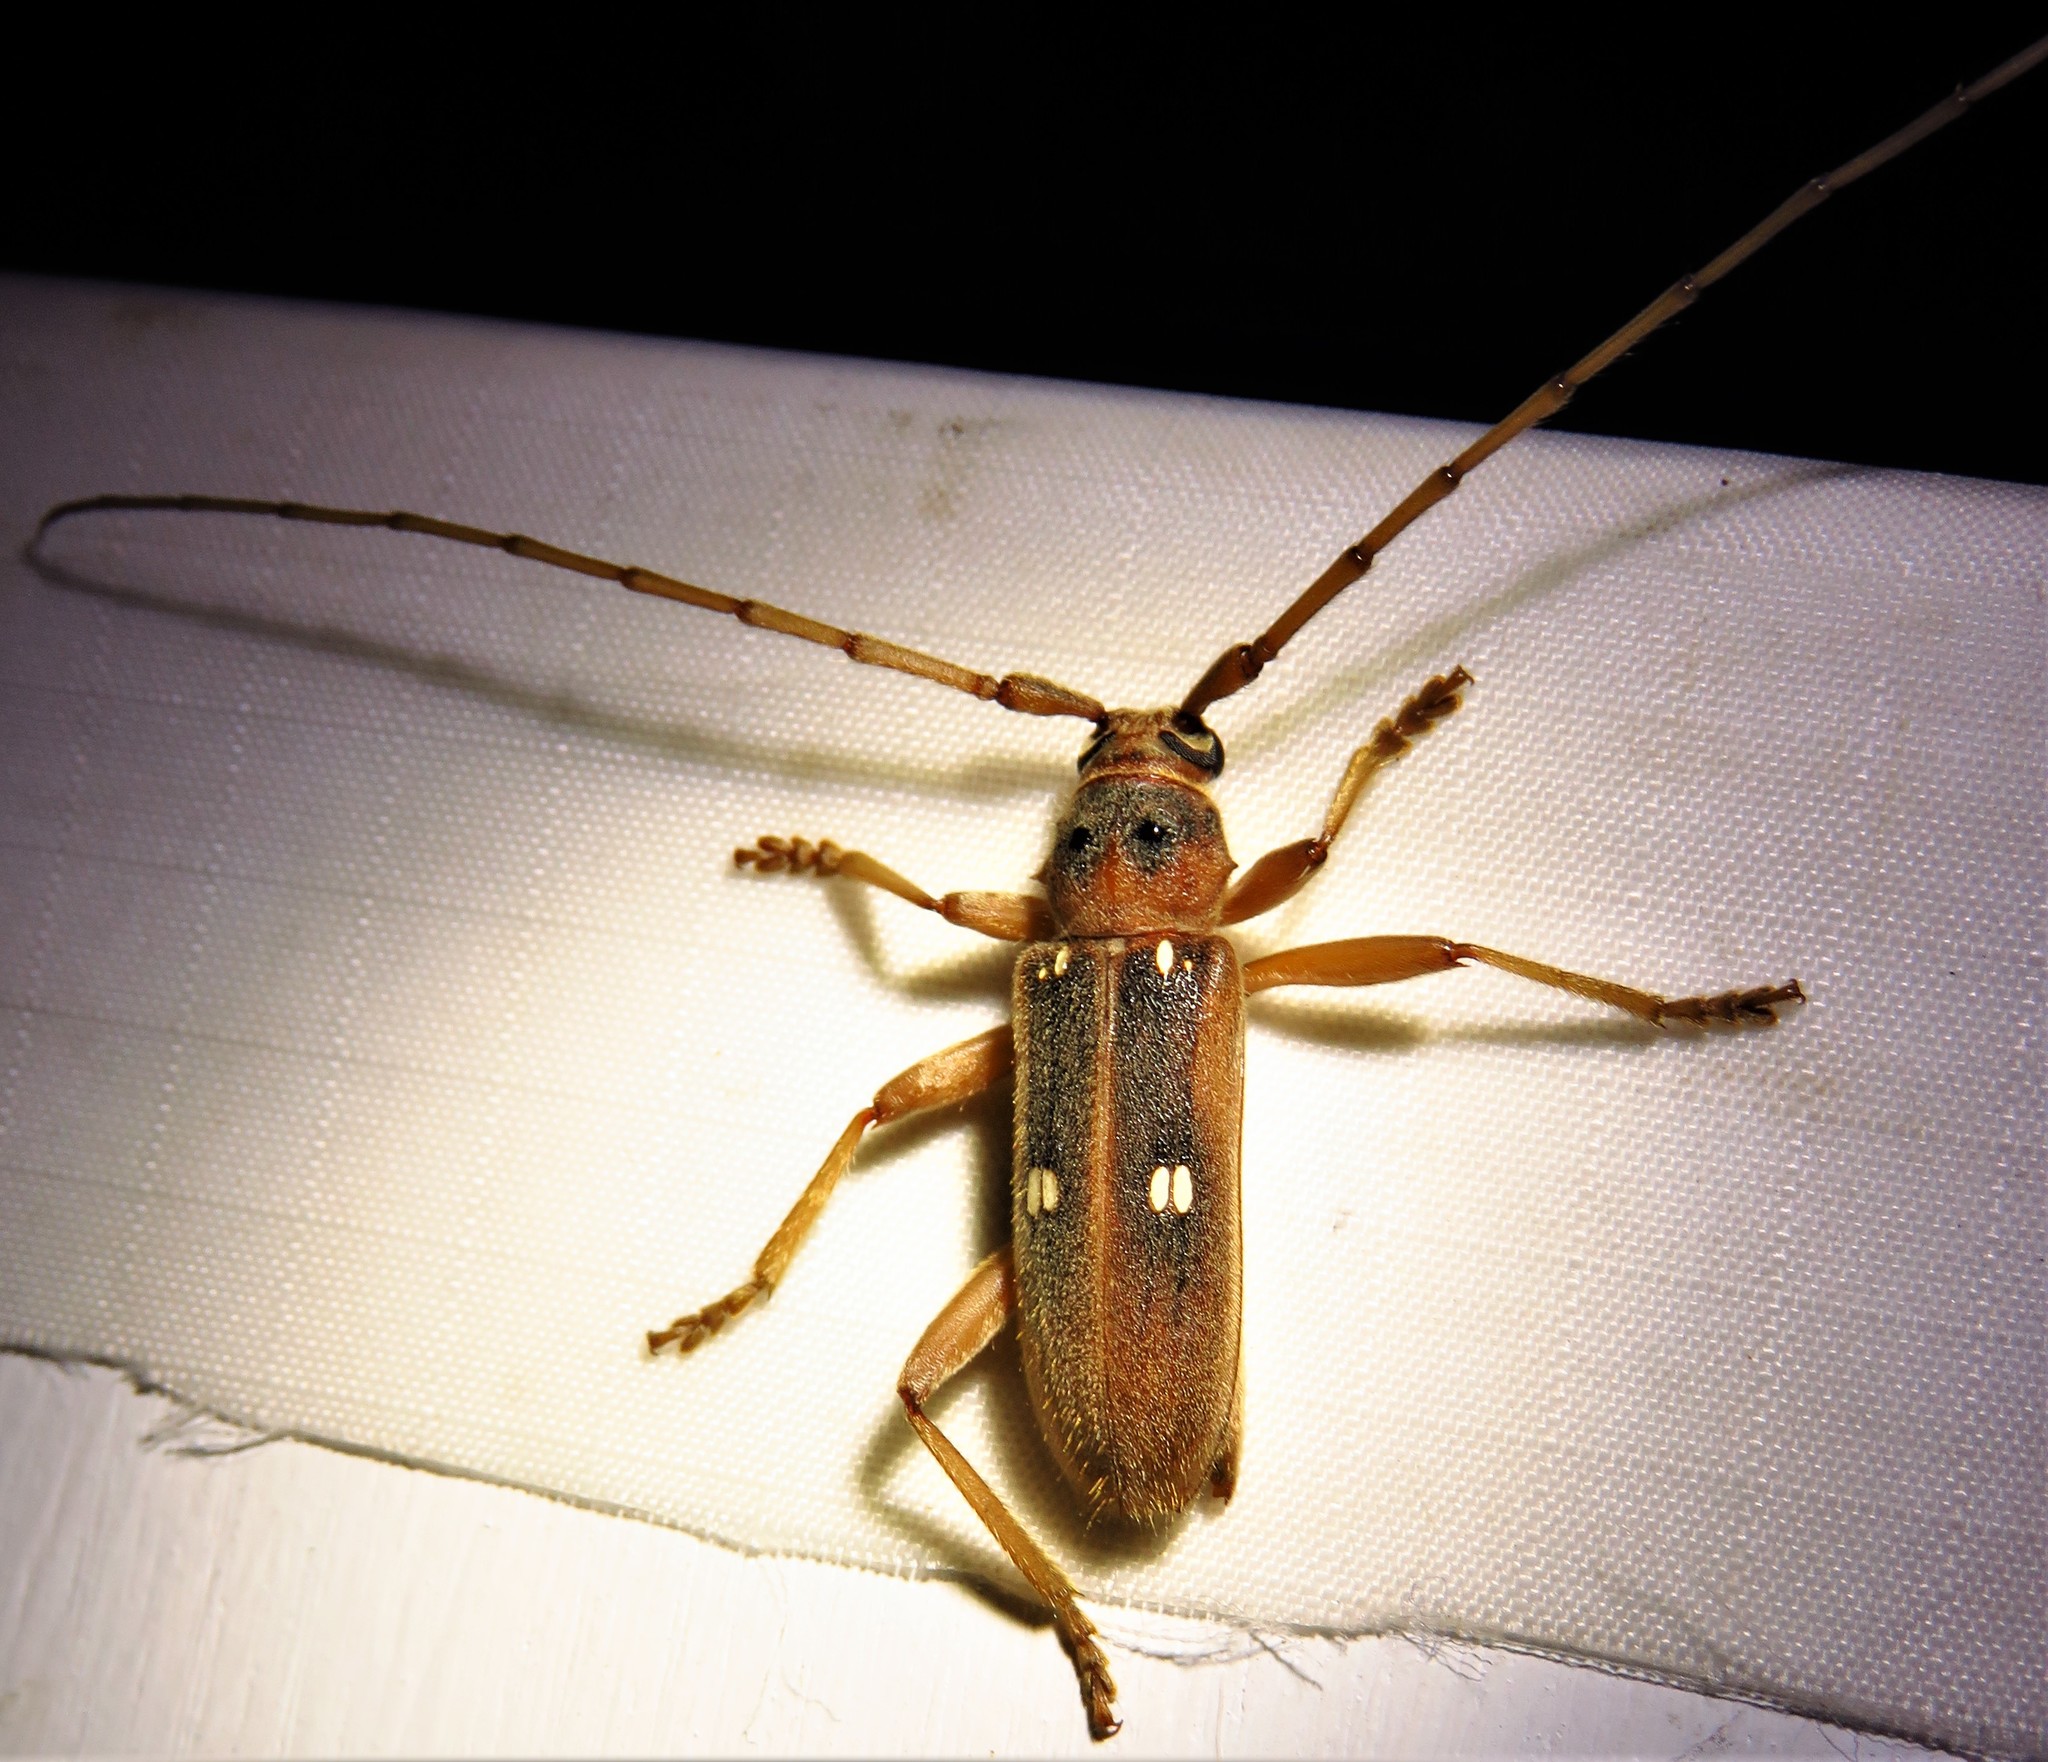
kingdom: Animalia
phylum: Arthropoda
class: Insecta
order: Coleoptera
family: Cerambycidae
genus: Eburia
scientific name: Eburia haldemani
